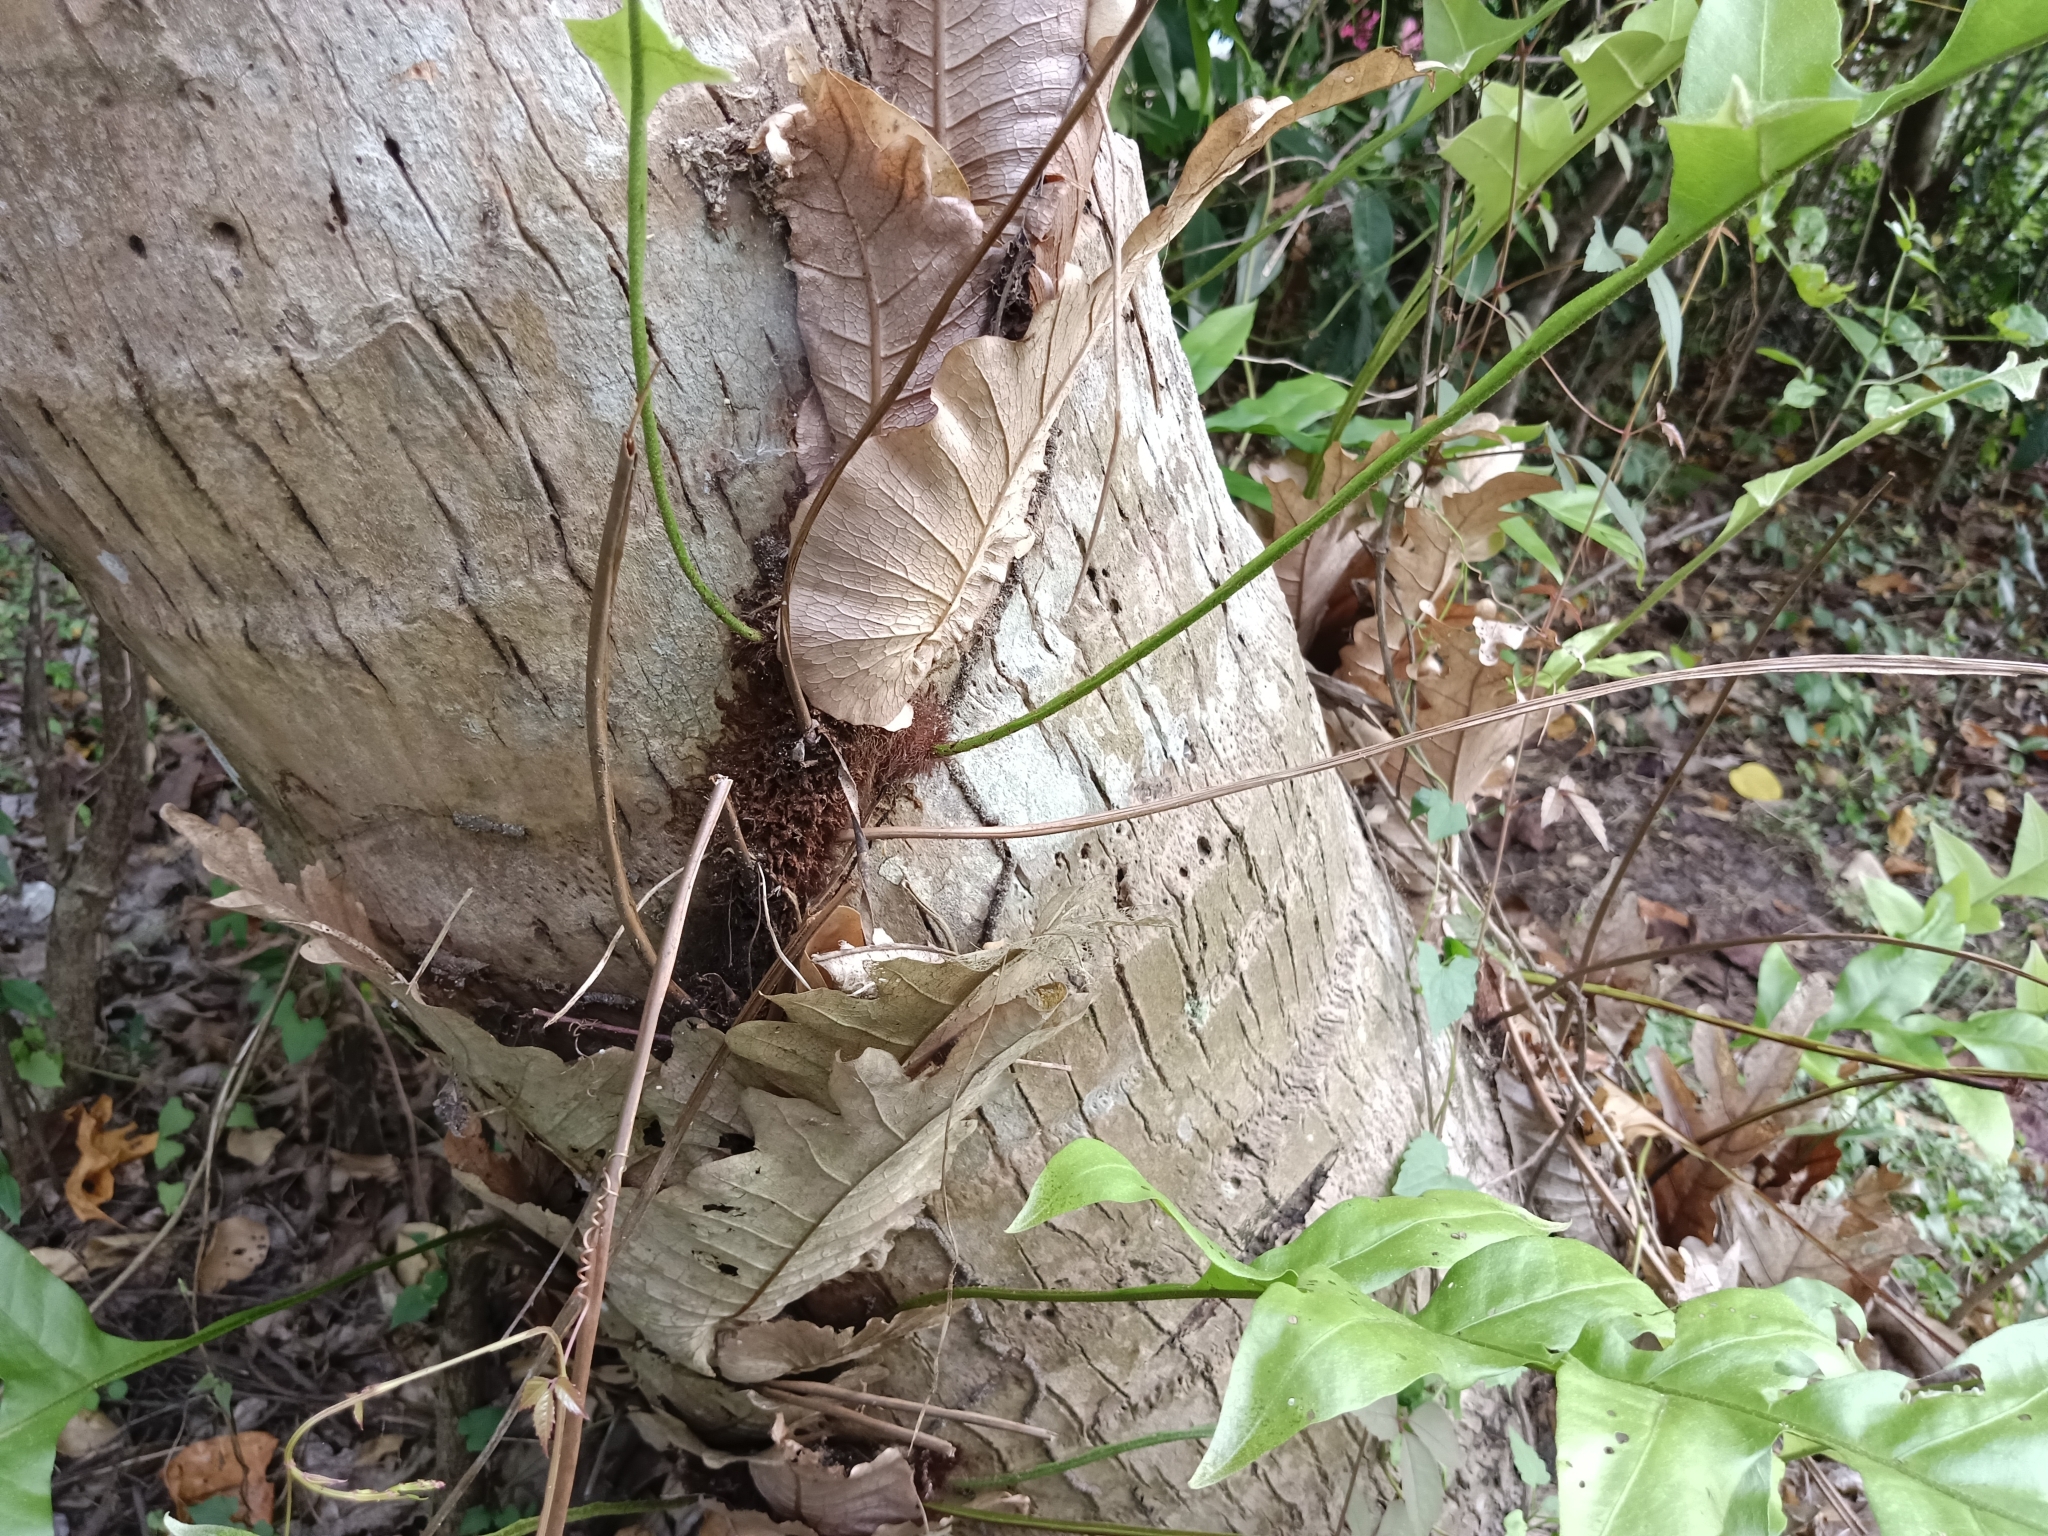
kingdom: Plantae
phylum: Tracheophyta
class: Polypodiopsida
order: Polypodiales
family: Polypodiaceae
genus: Drynaria
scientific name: Drynaria quercifolia
